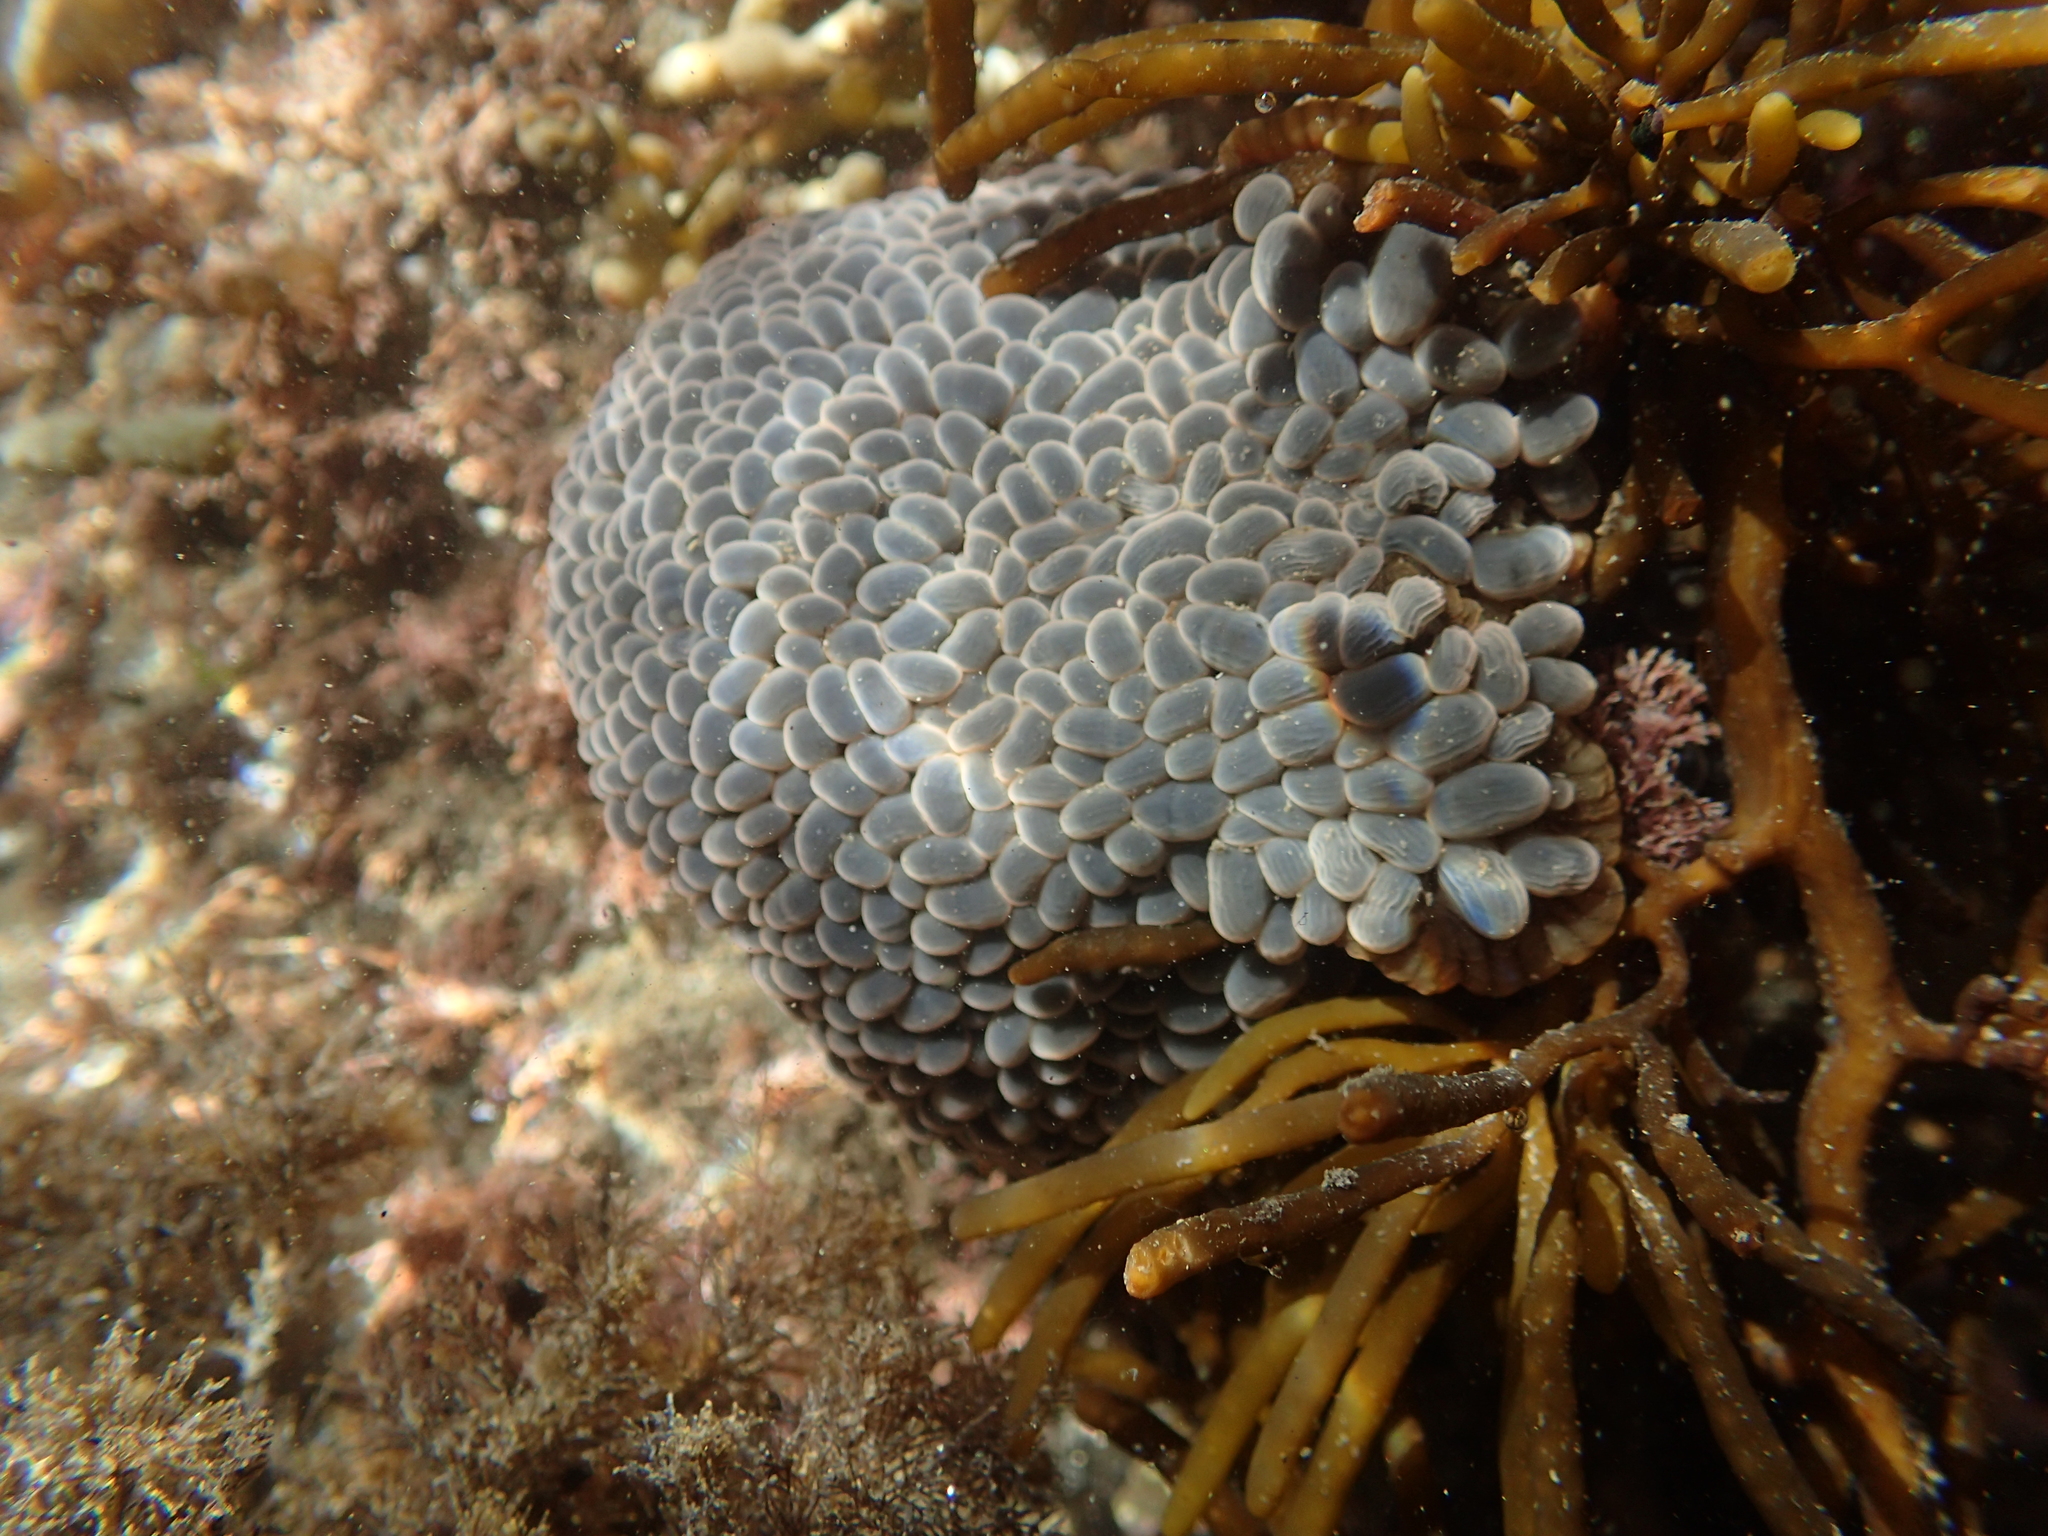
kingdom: Animalia
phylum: Cnidaria
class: Anthozoa
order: Actiniaria
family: Actiniidae
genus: Phlyctenactis
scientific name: Phlyctenactis tuberculosa
